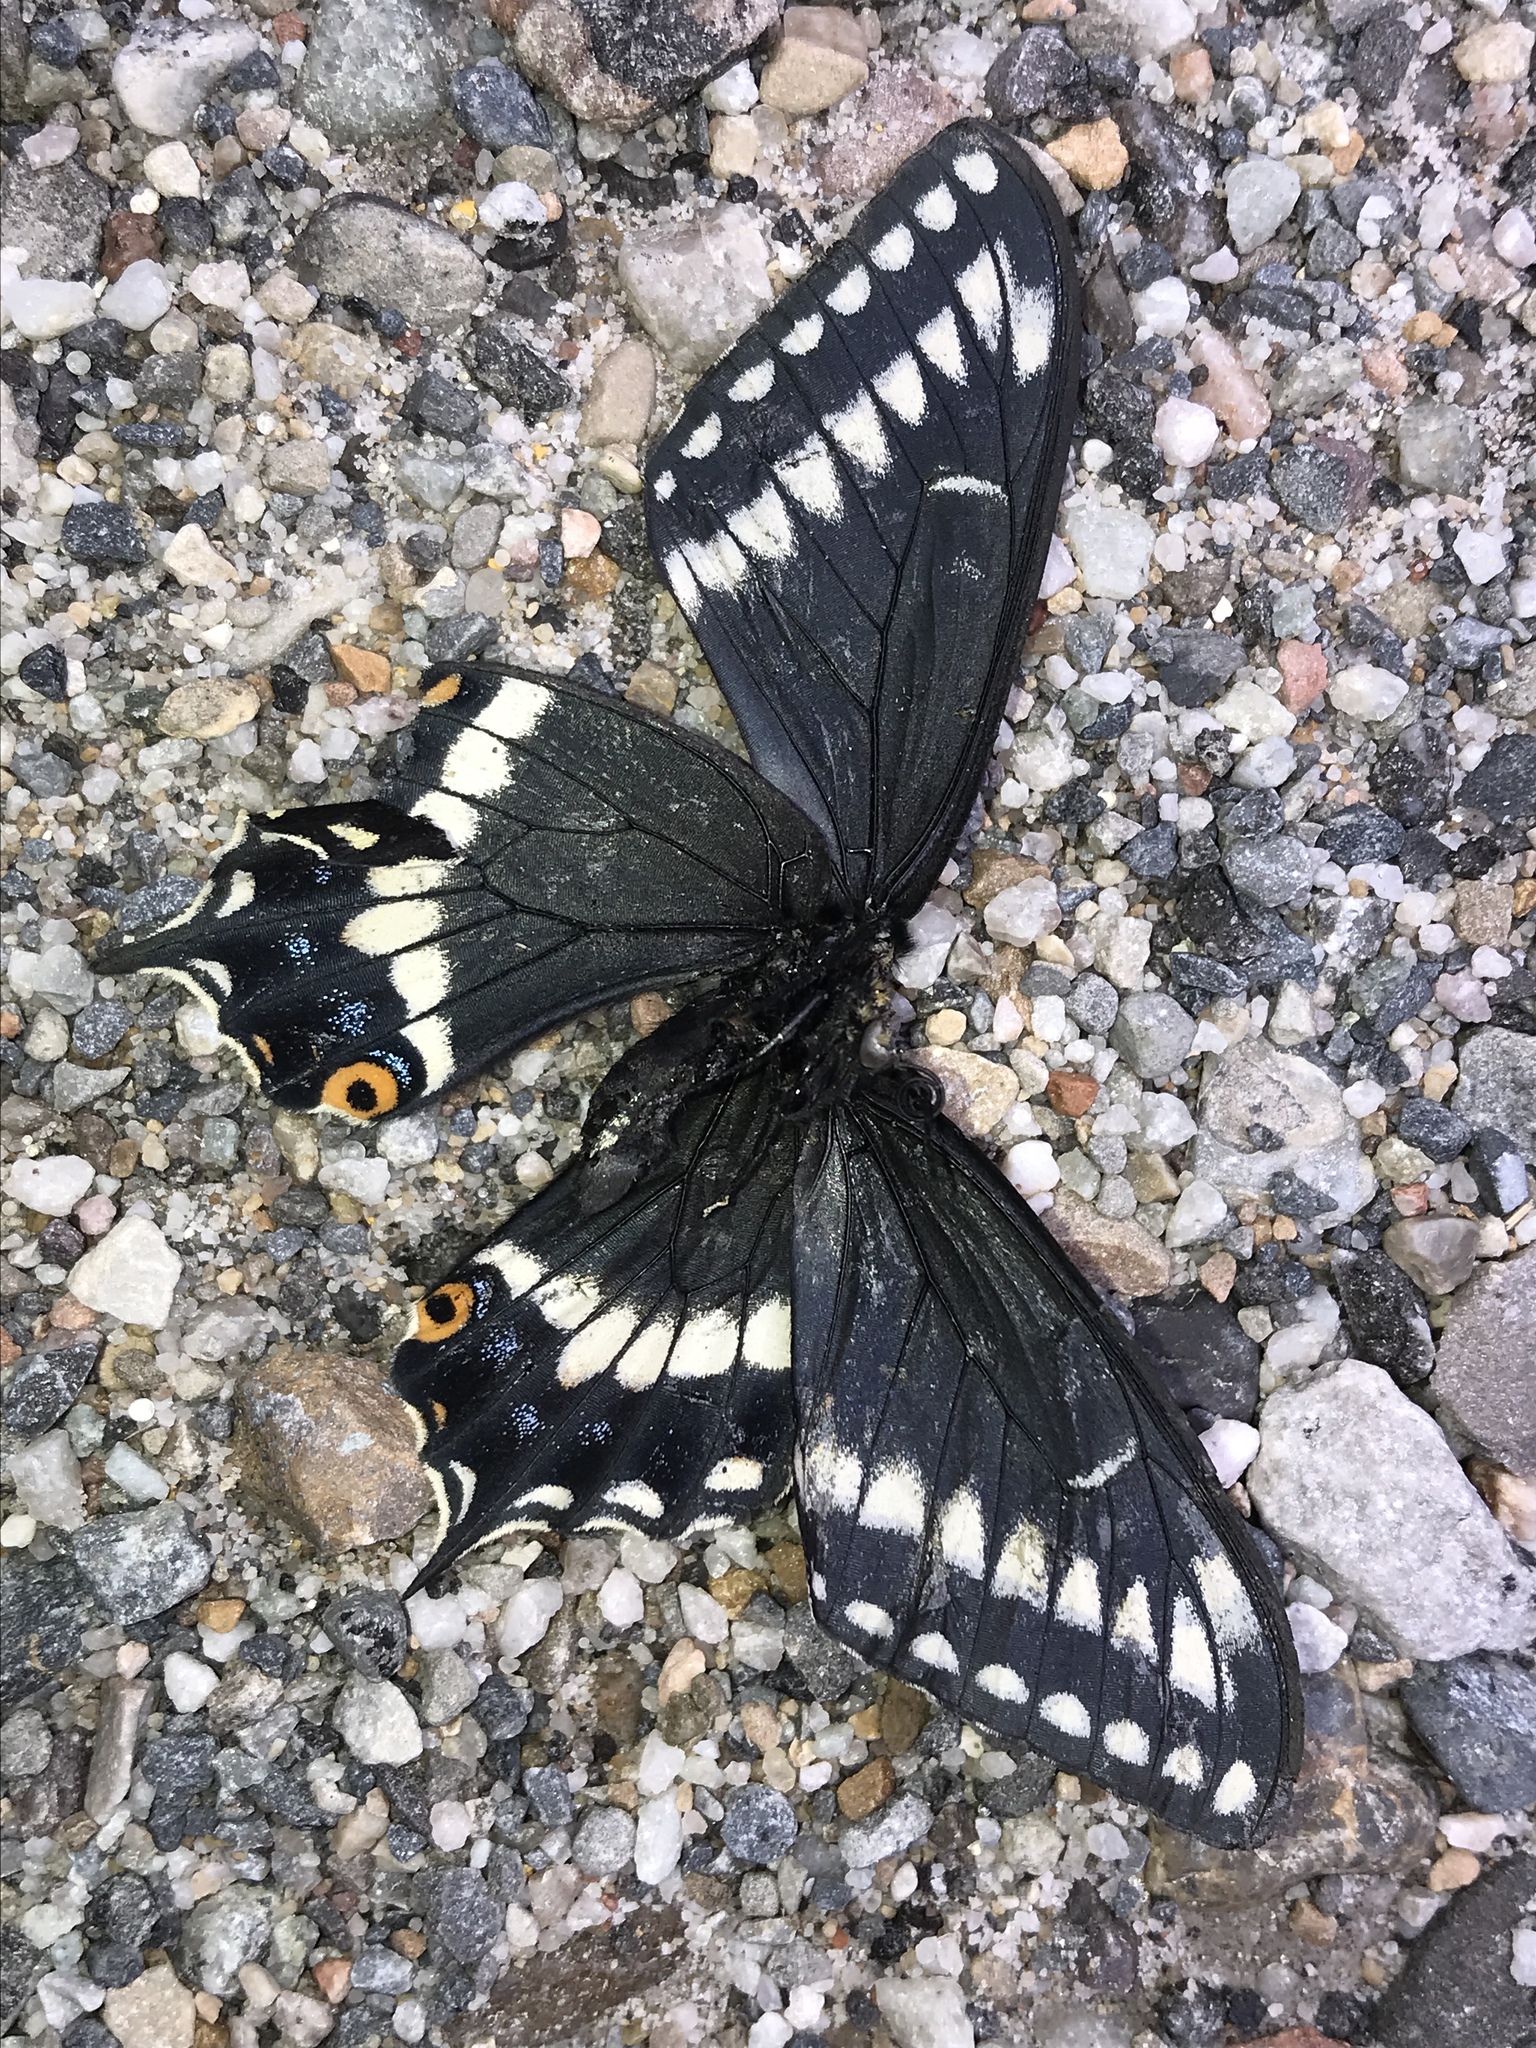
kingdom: Animalia
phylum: Arthropoda
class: Insecta
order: Lepidoptera
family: Papilionidae
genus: Papilio
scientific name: Papilio indra
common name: Cliff swallowtail
